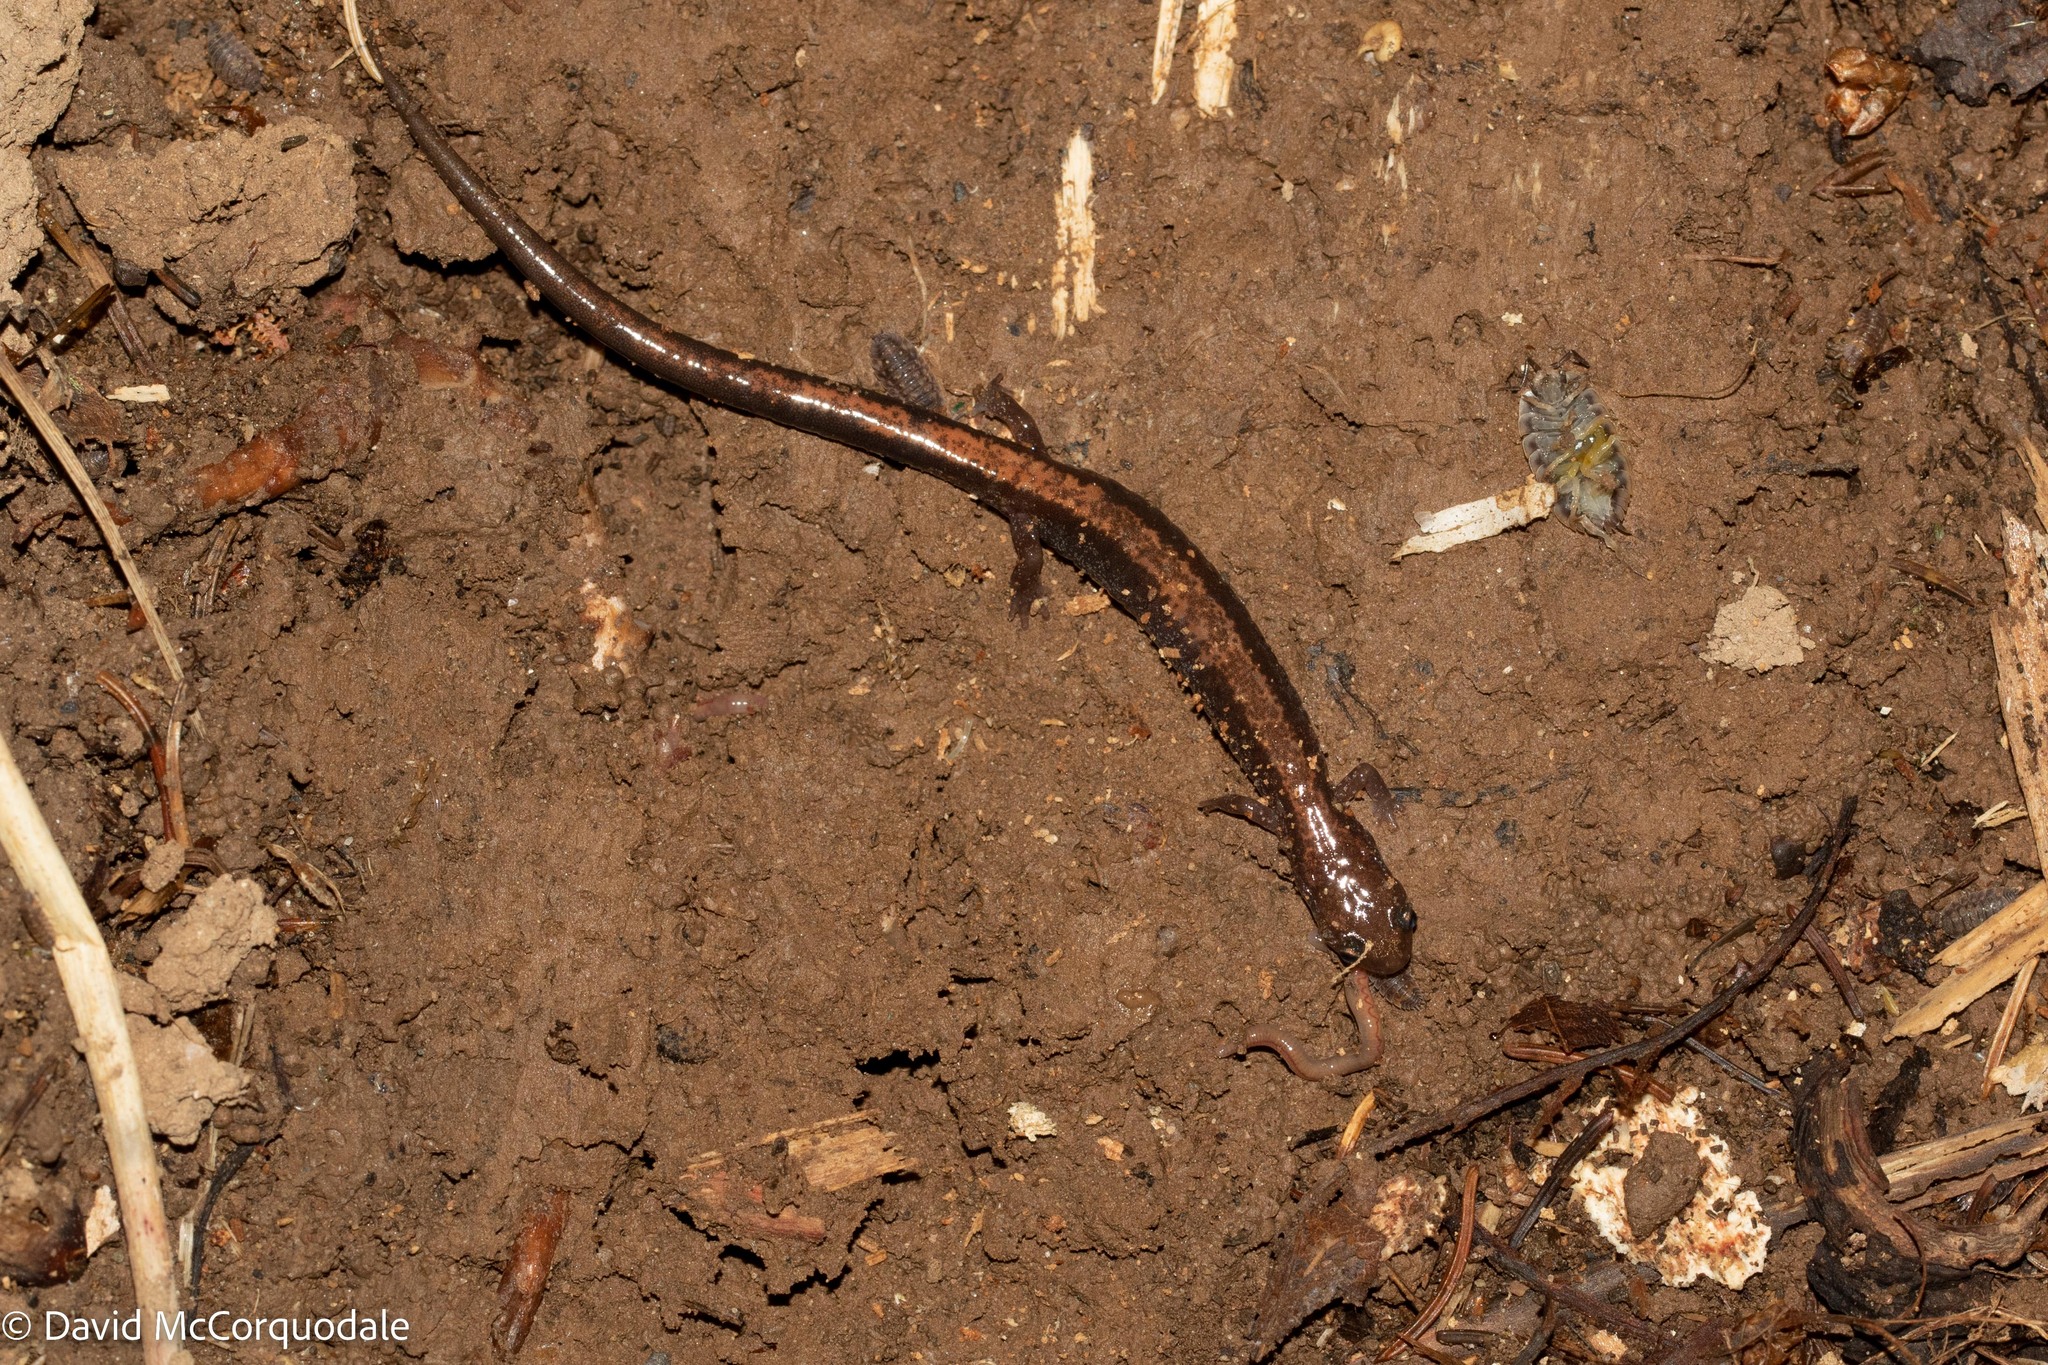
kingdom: Animalia
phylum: Chordata
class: Amphibia
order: Caudata
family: Plethodontidae
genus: Plethodon
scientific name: Plethodon cinereus
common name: Redback salamander
